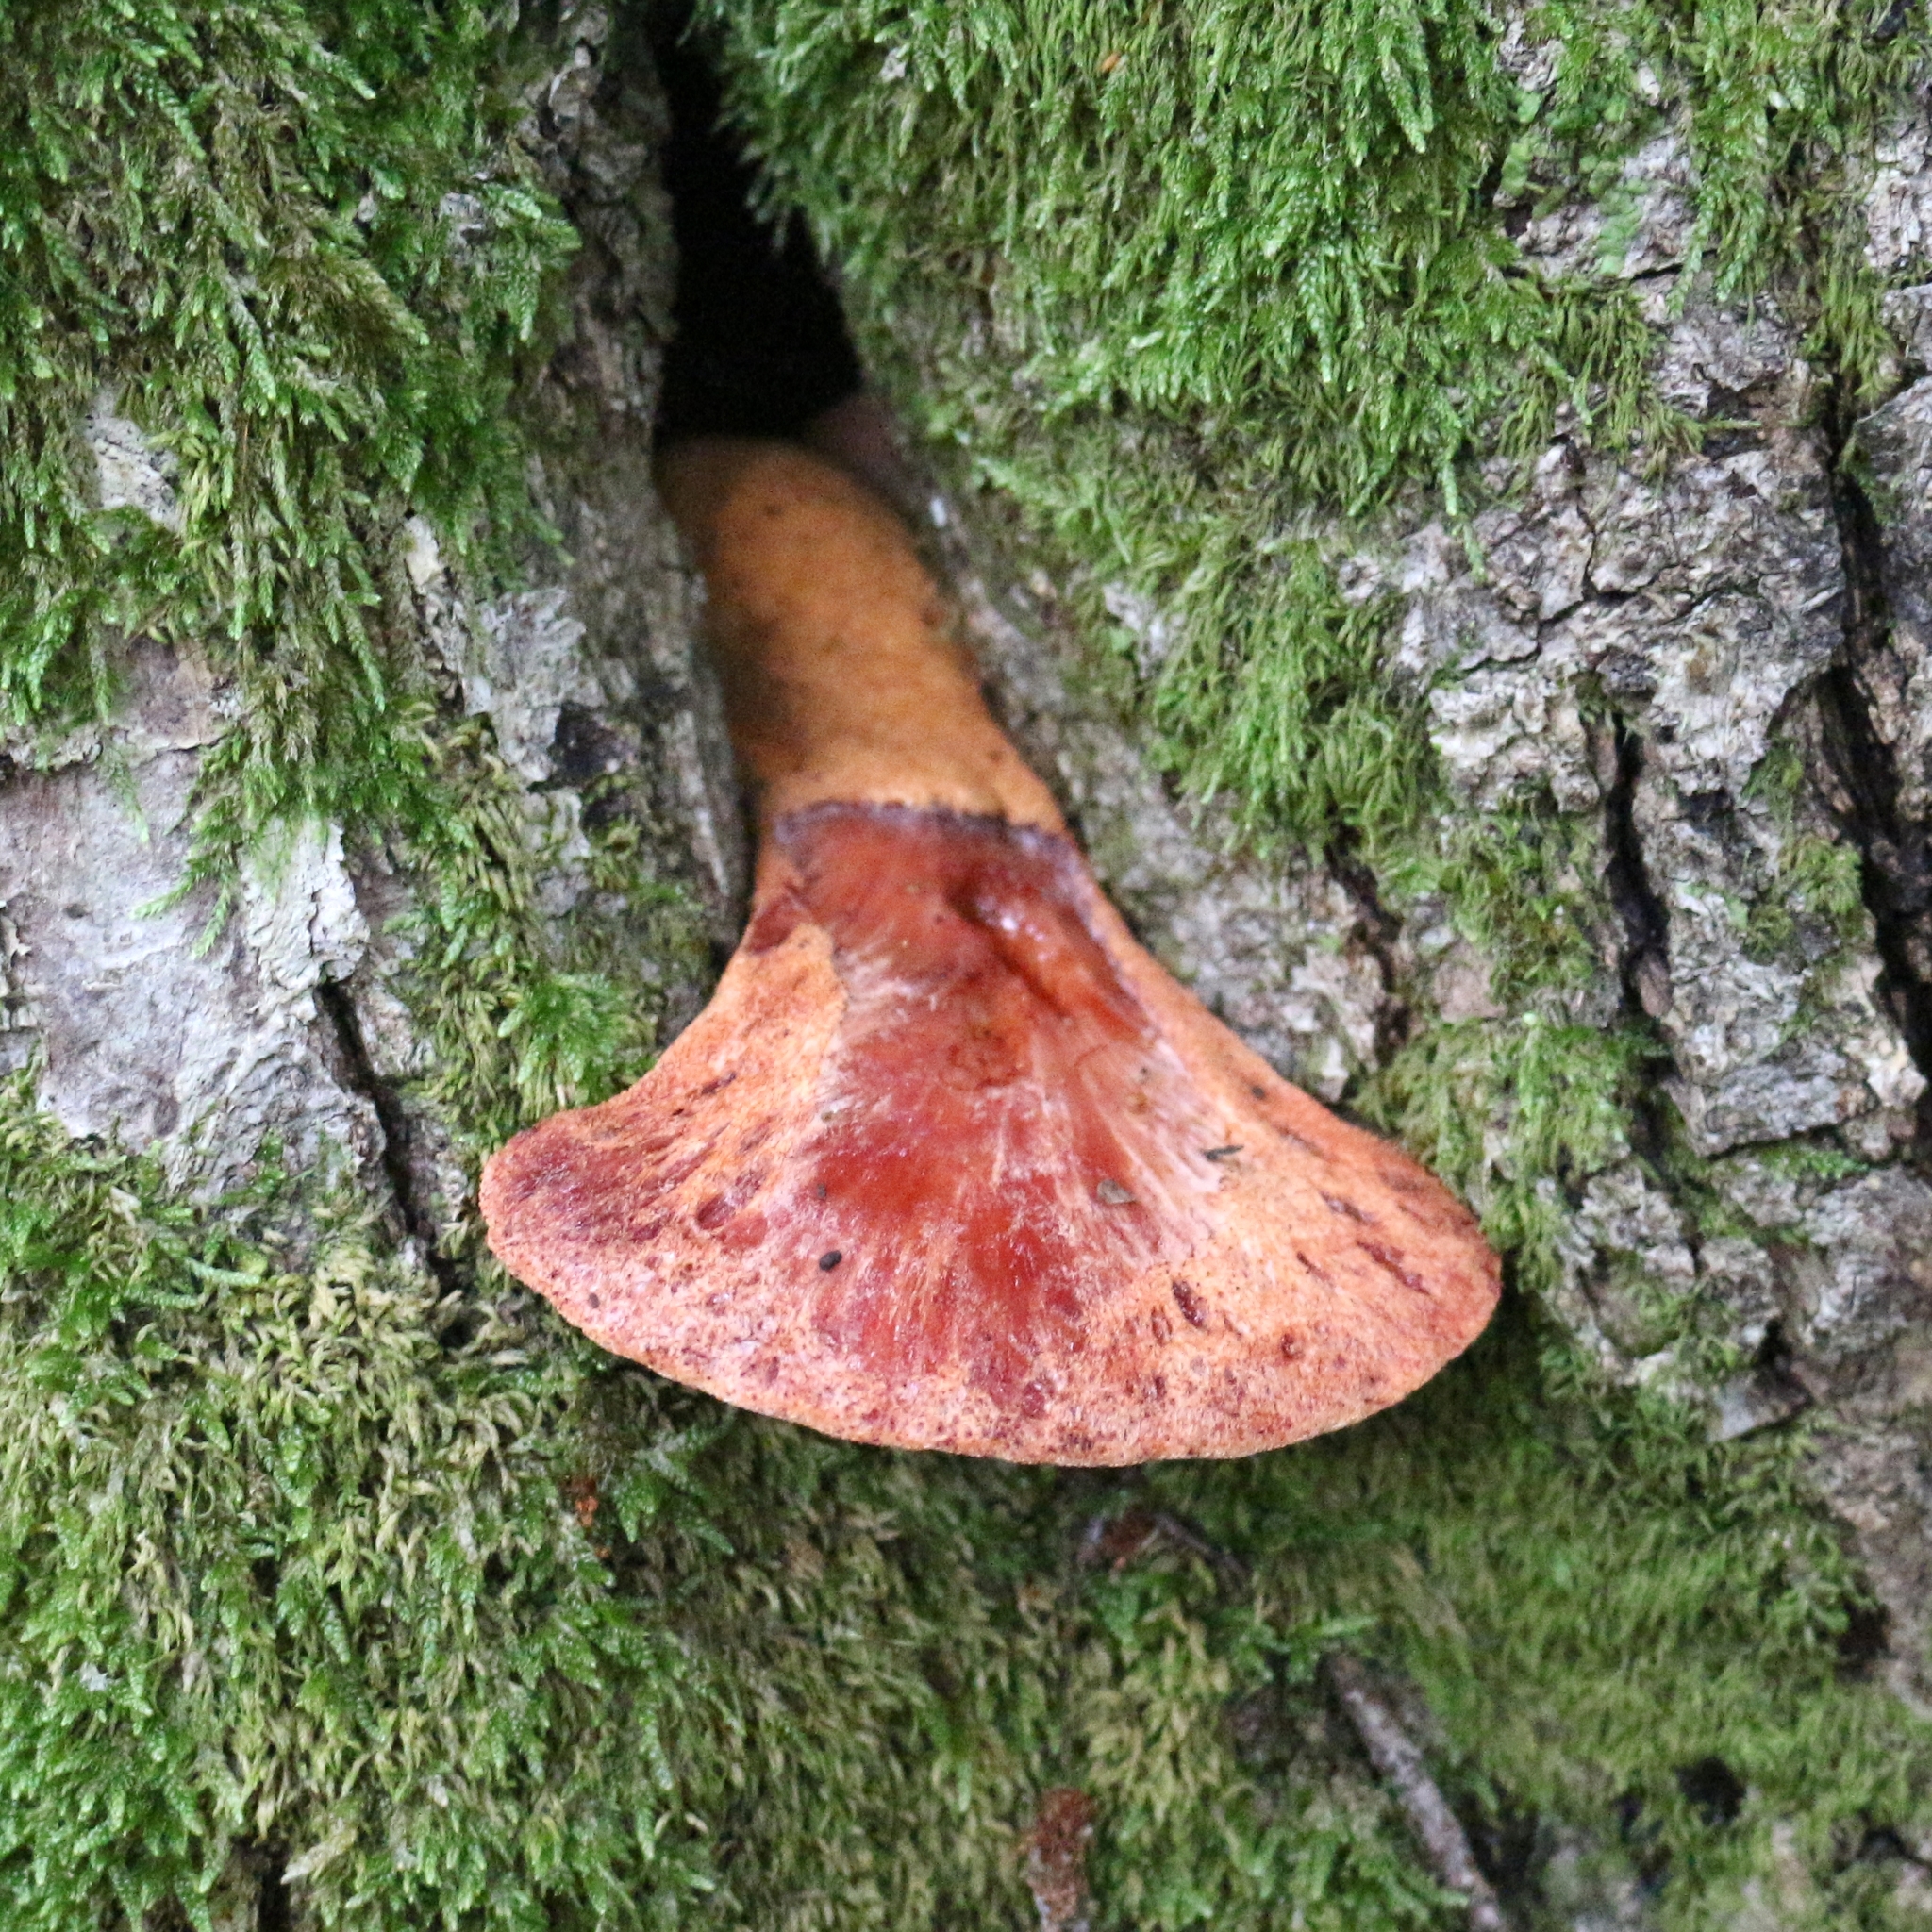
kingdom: Fungi
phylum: Basidiomycota
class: Agaricomycetes
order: Agaricales
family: Fistulinaceae
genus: Fistulina
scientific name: Fistulina hepatica
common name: Beef-steak fungus
